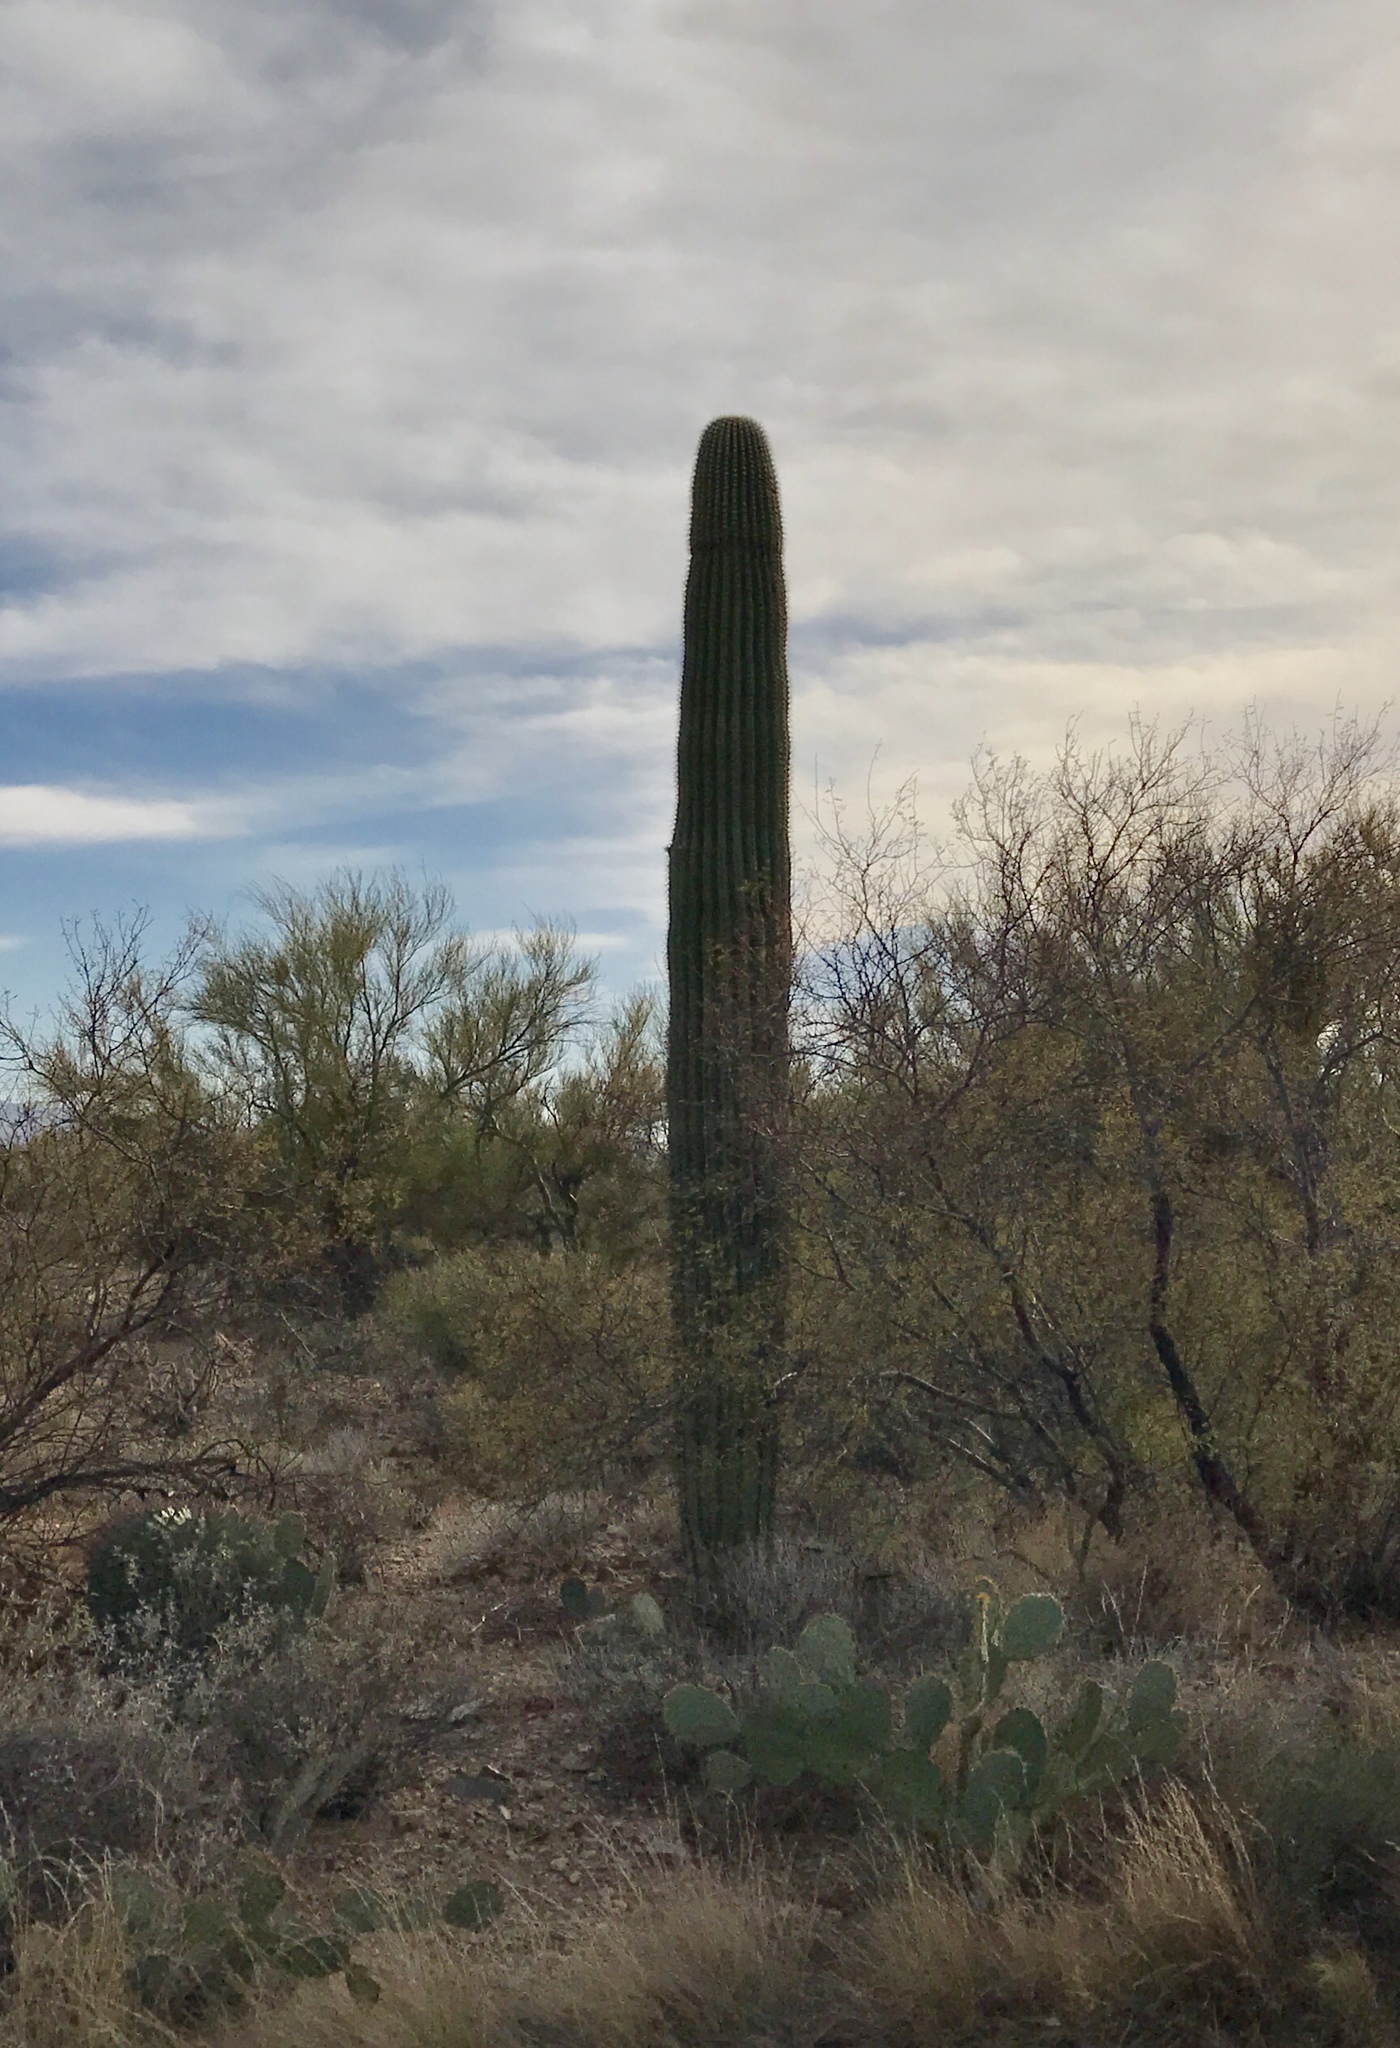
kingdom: Plantae
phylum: Tracheophyta
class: Magnoliopsida
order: Caryophyllales
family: Cactaceae
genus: Carnegiea
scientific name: Carnegiea gigantea
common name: Saguaro
